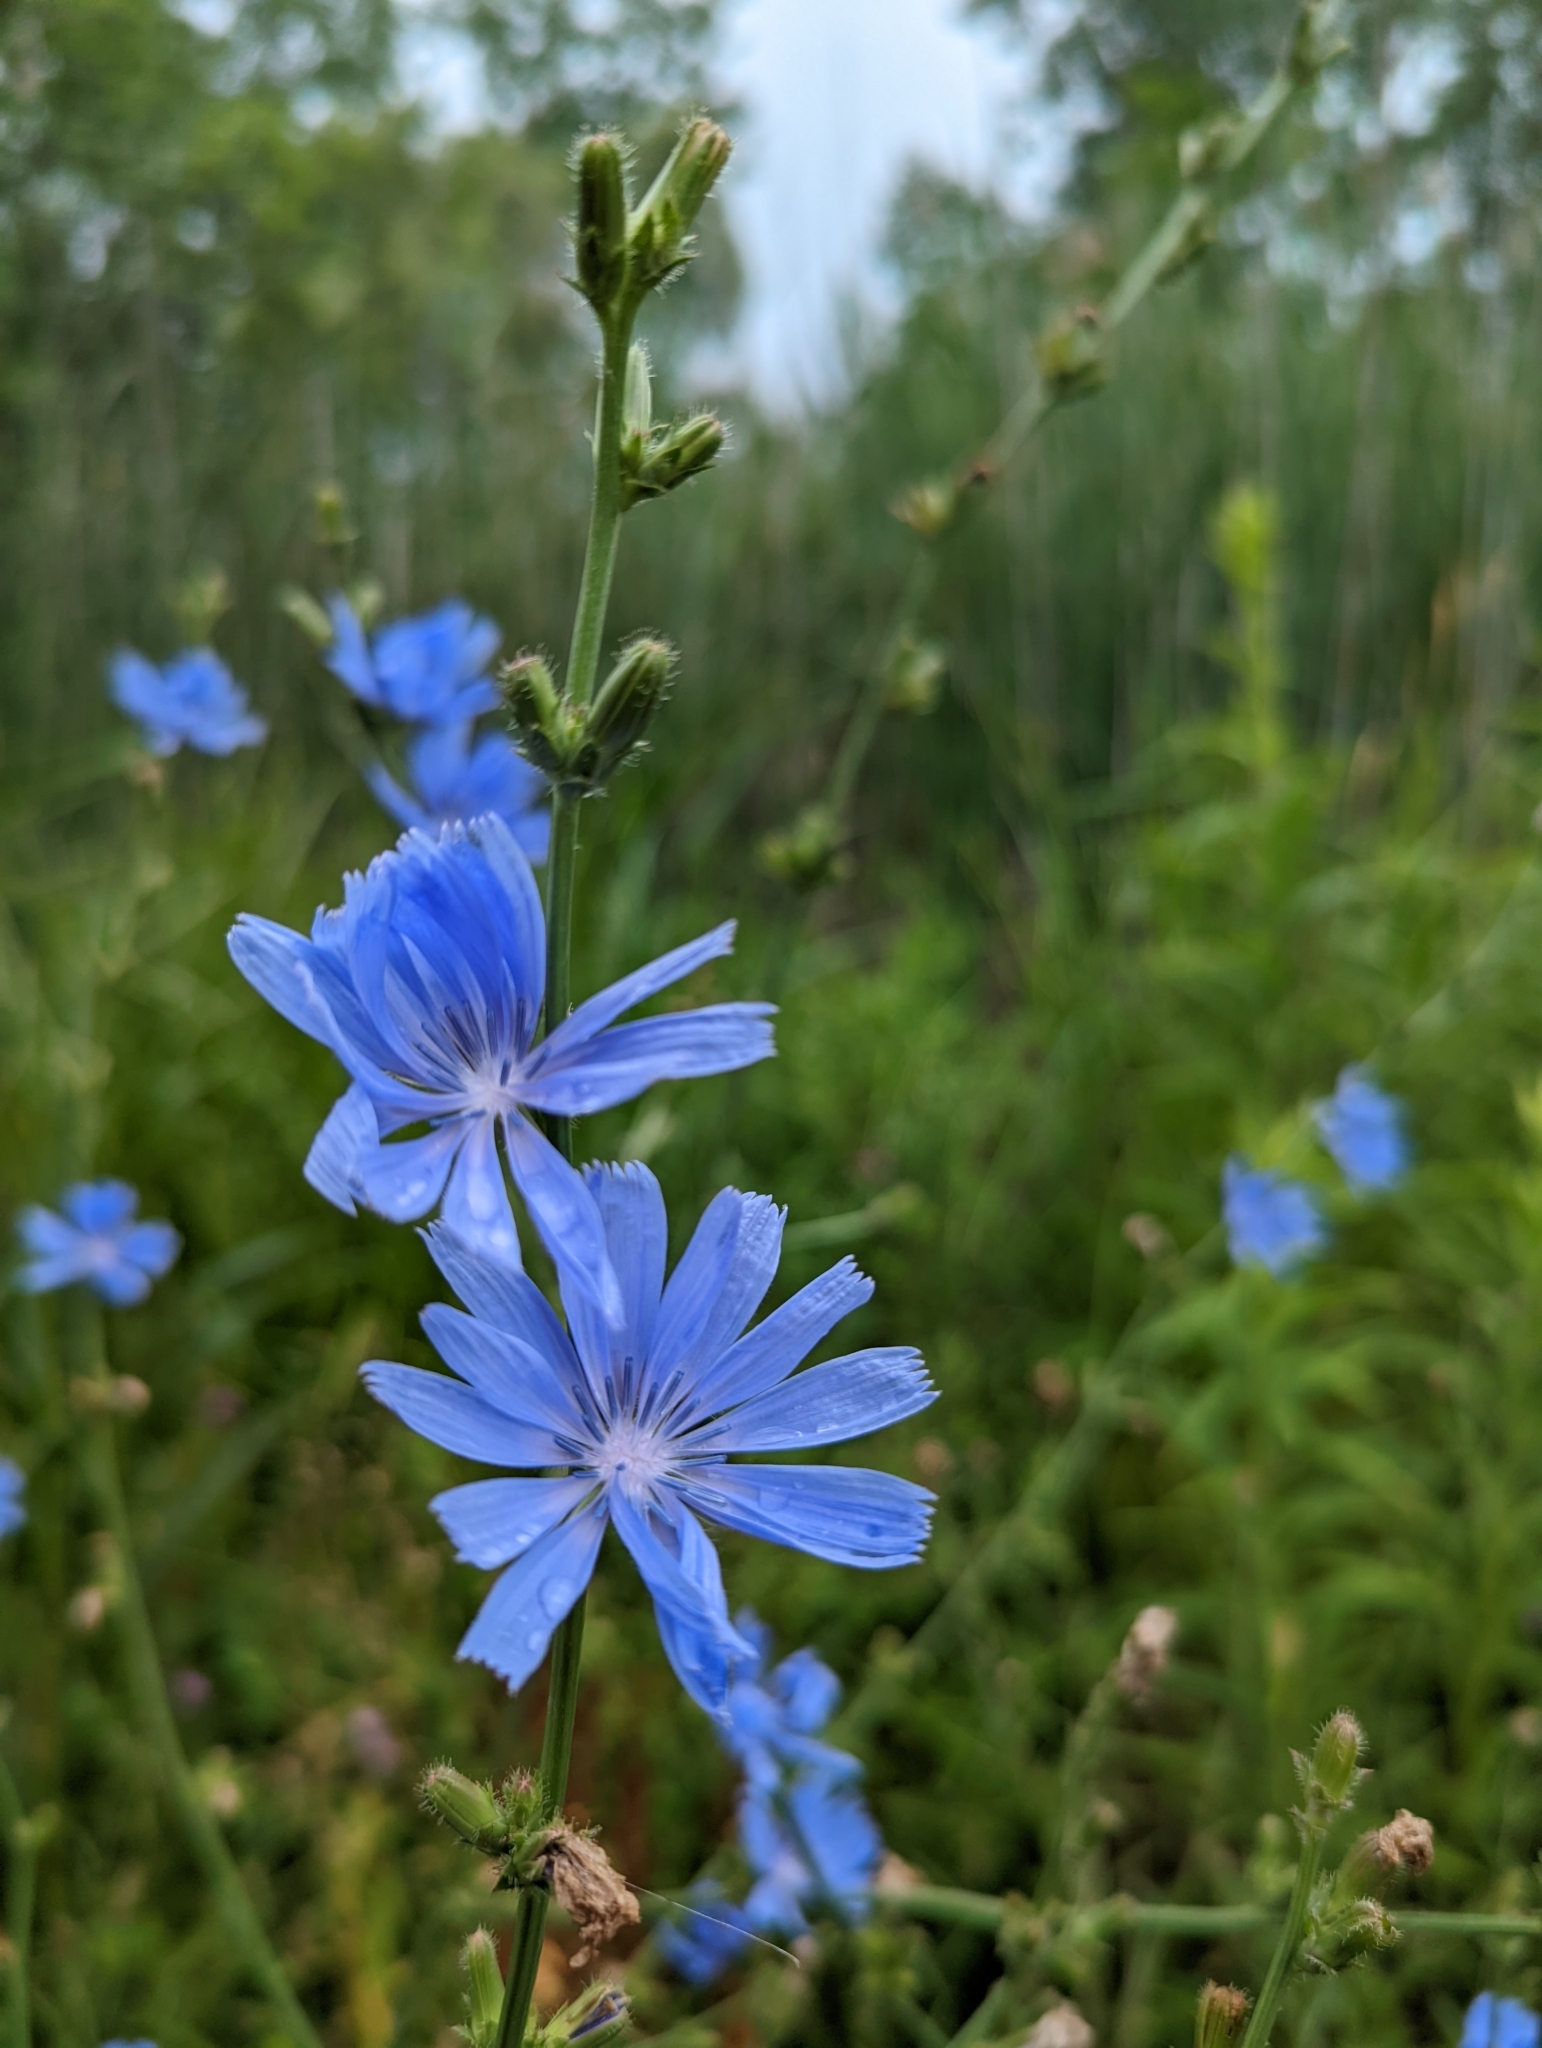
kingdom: Plantae
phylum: Tracheophyta
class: Magnoliopsida
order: Asterales
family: Asteraceae
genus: Cichorium
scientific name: Cichorium intybus
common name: Chicory
